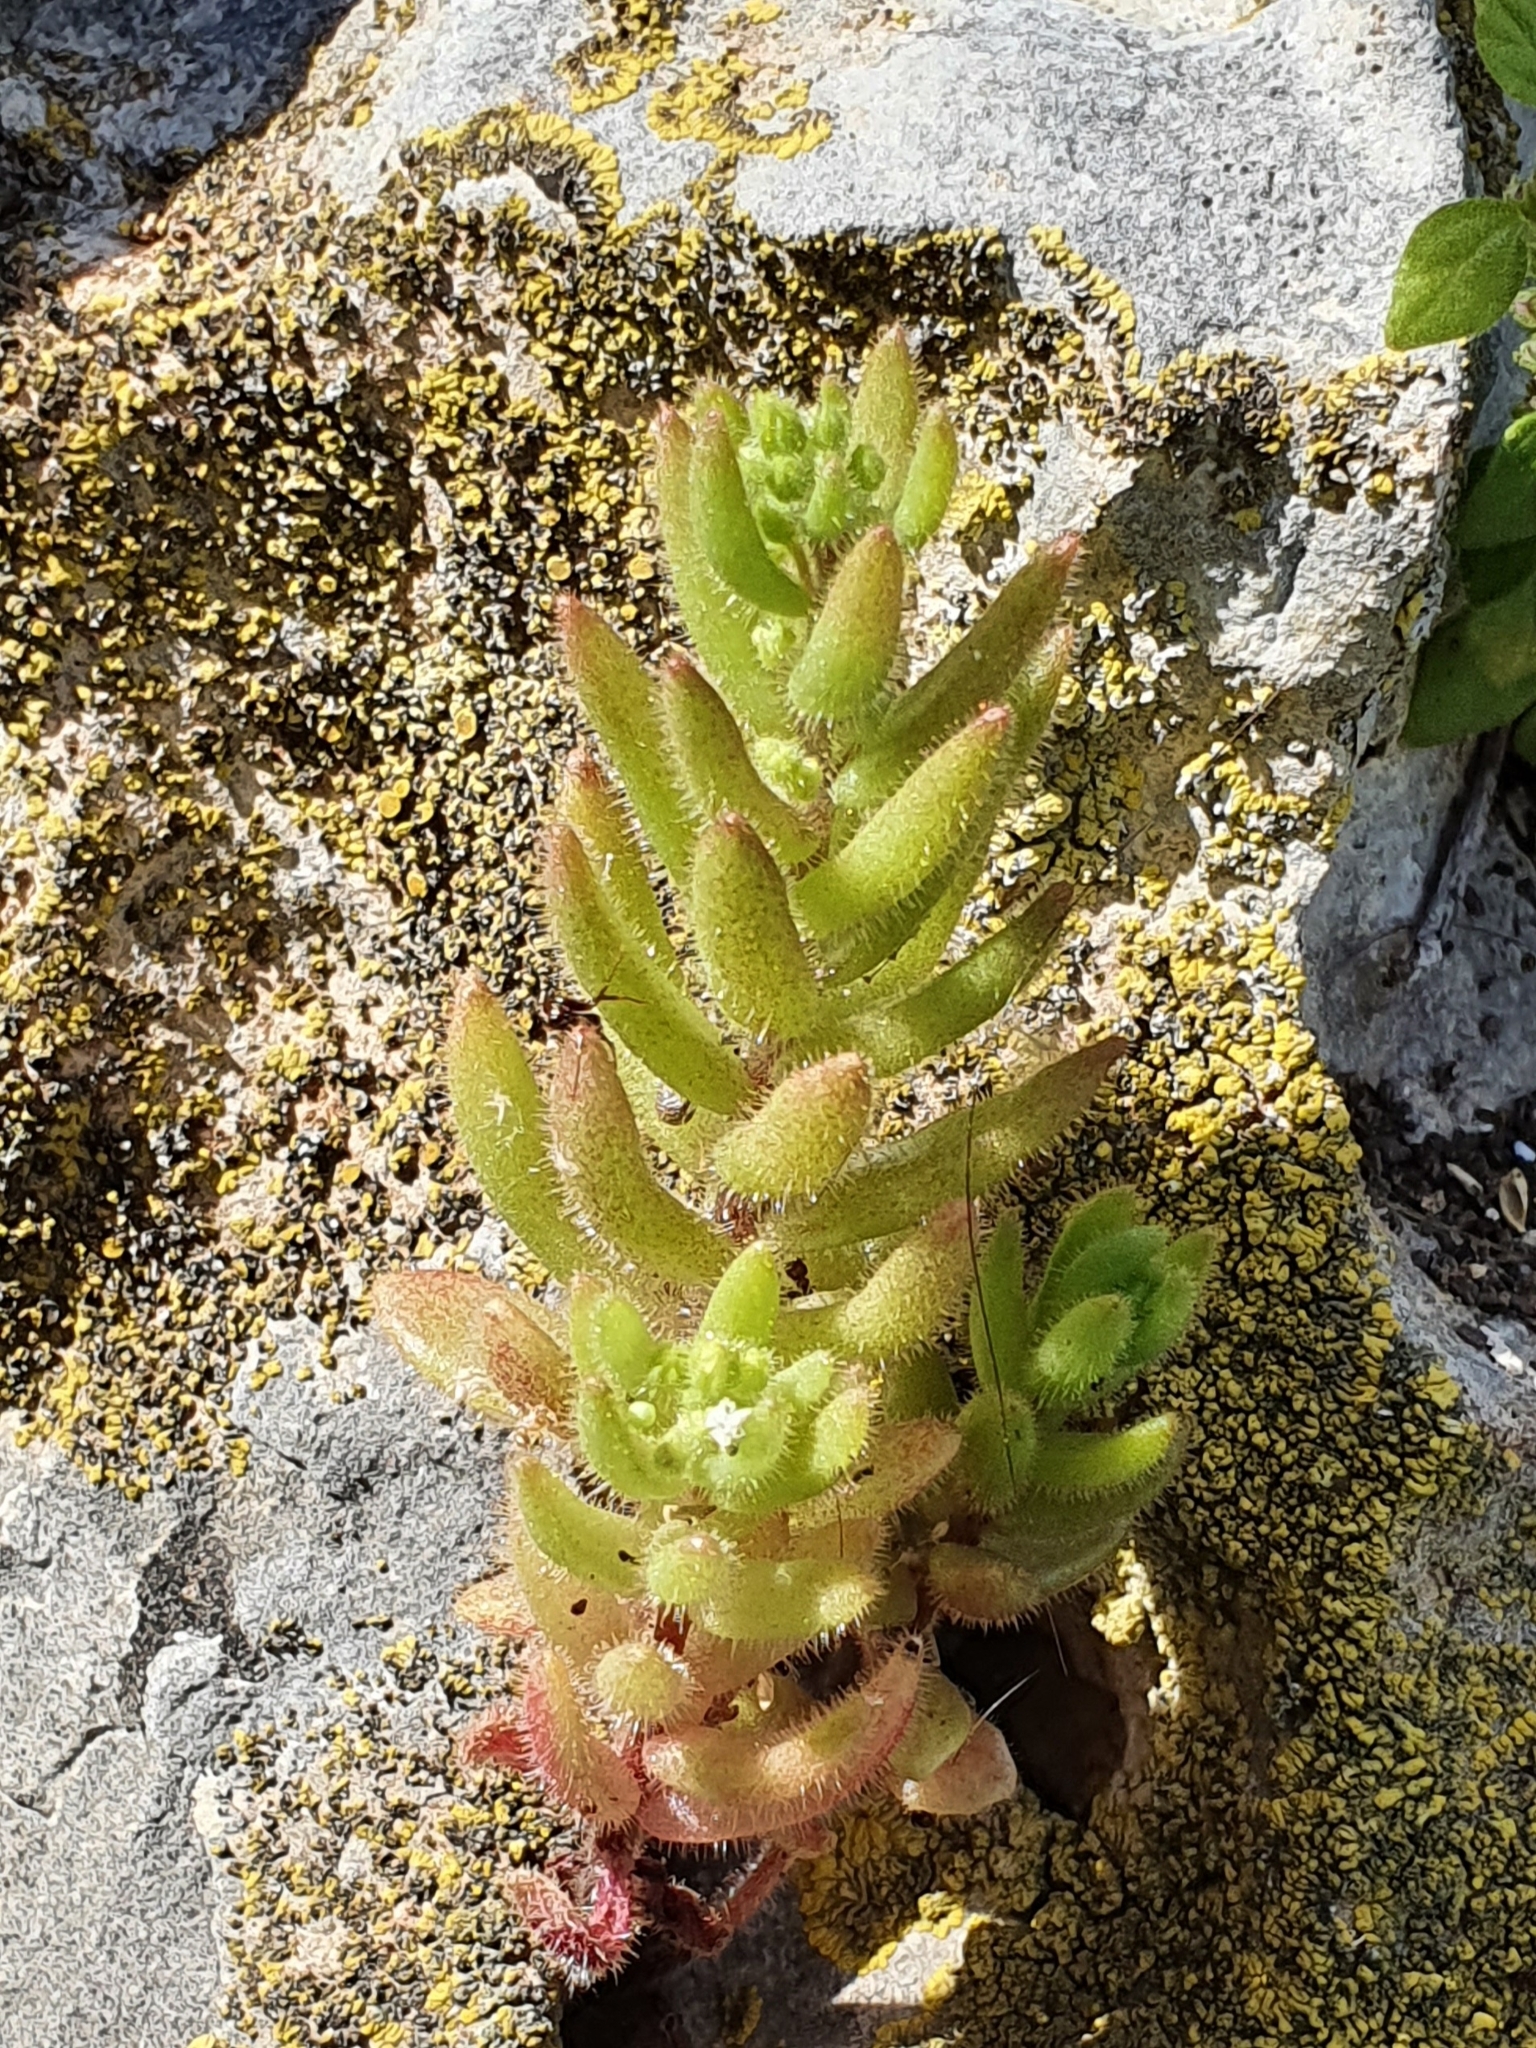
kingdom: Plantae
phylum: Tracheophyta
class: Magnoliopsida
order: Saxifragales
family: Crassulaceae
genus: Sedum
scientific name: Sedum pubescens
